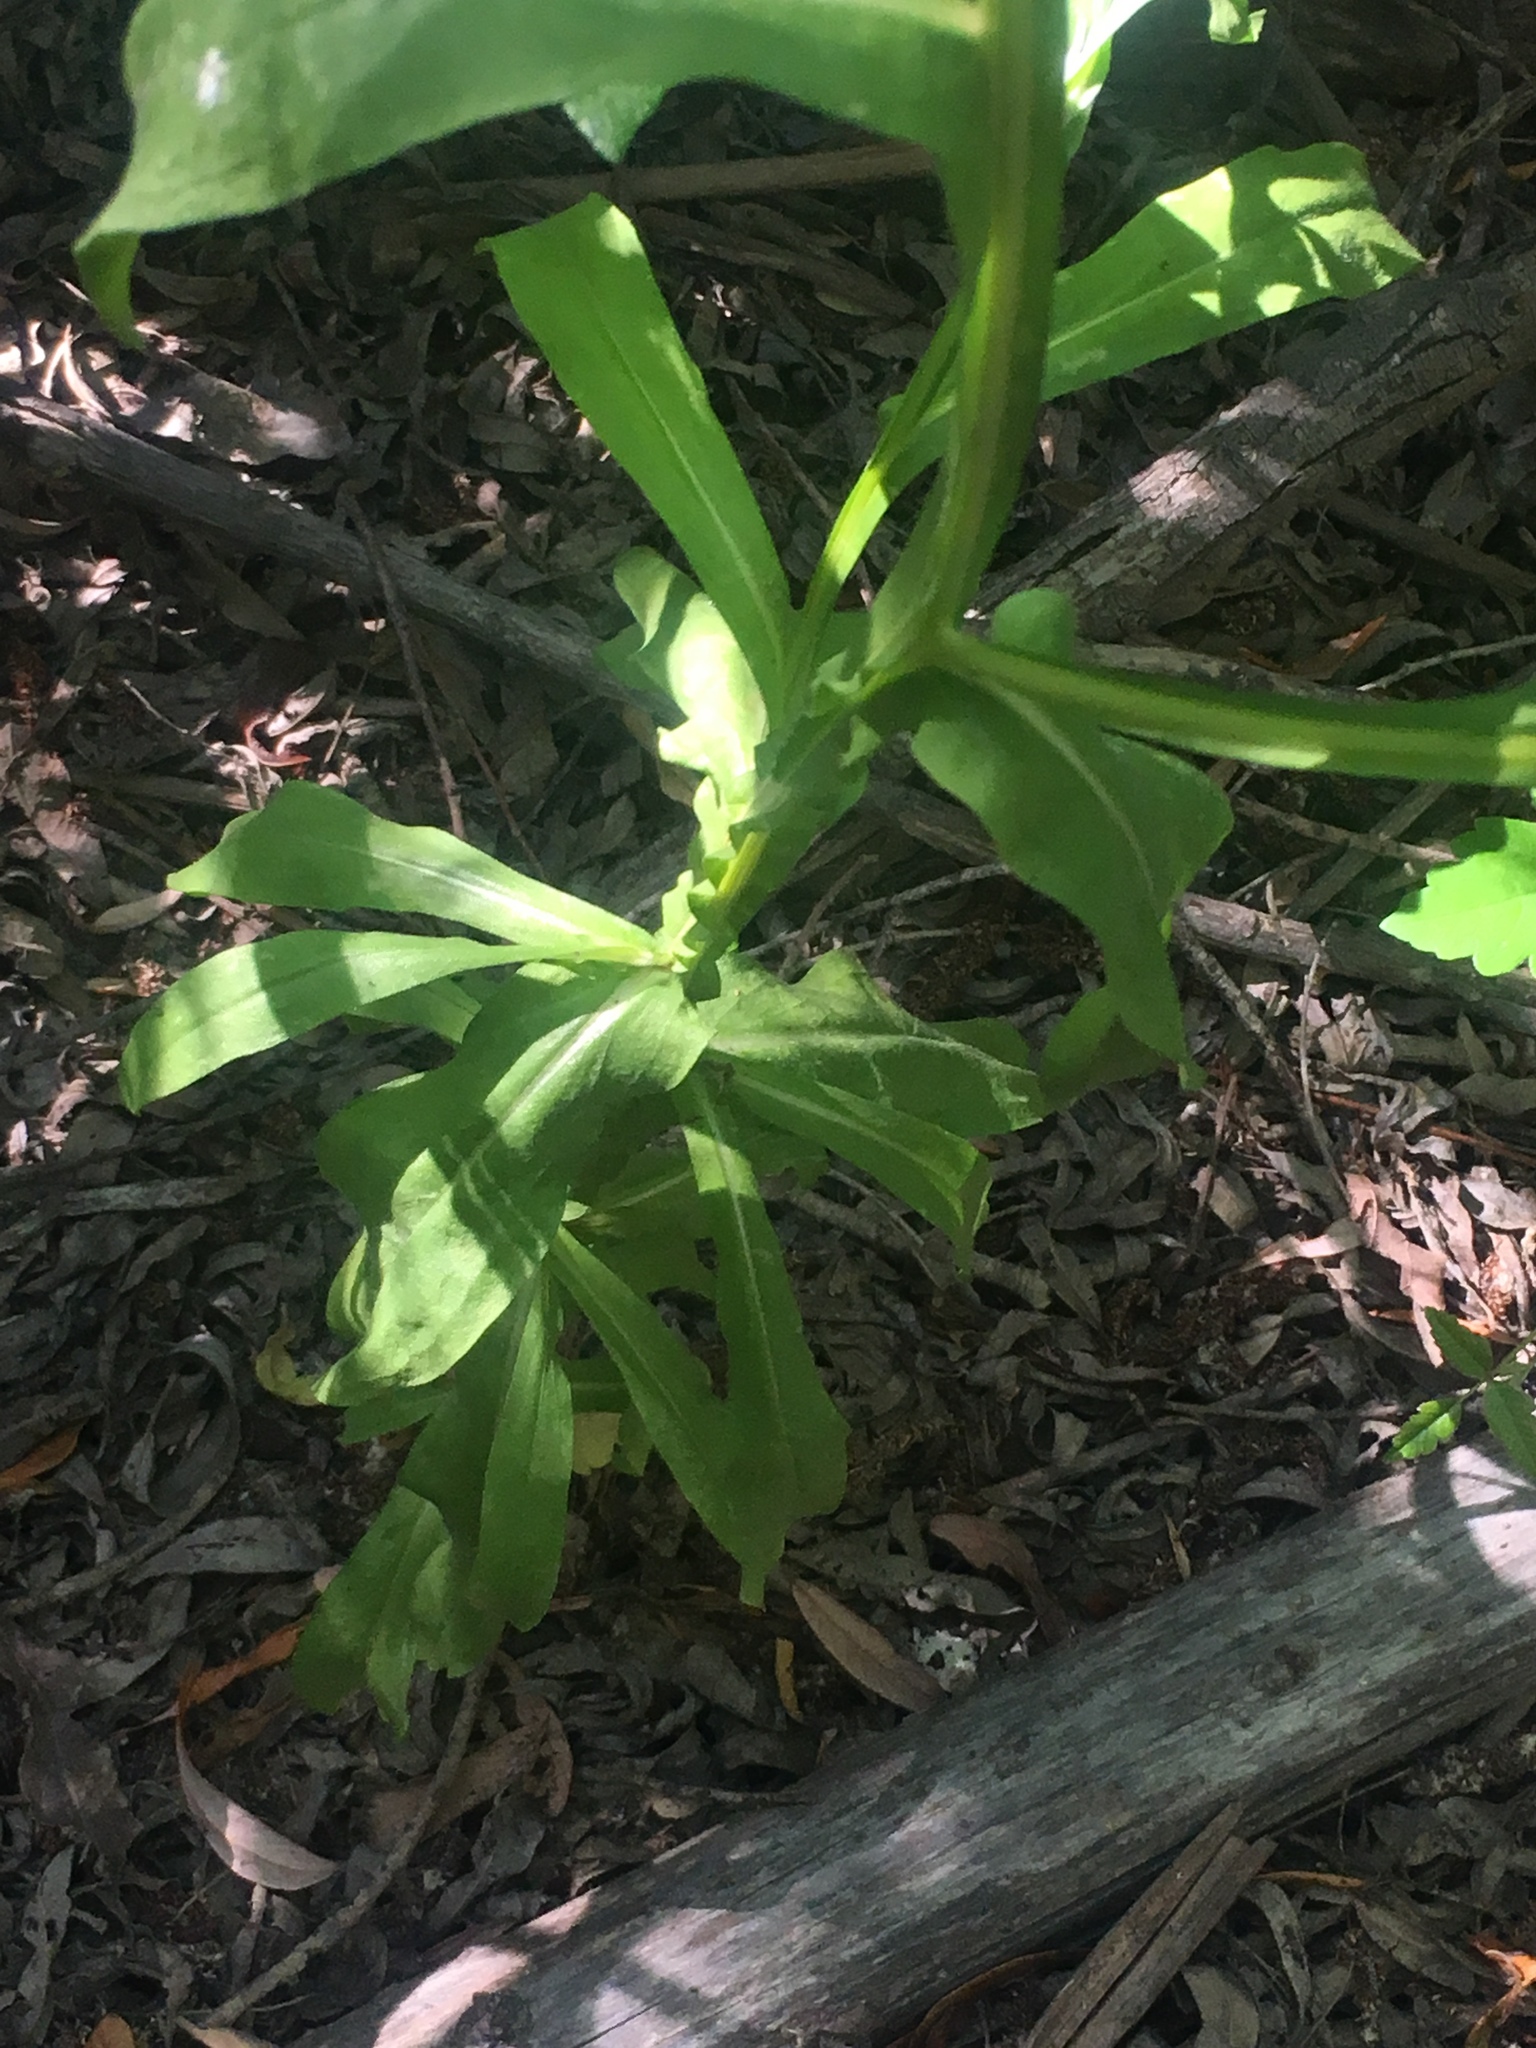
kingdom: Plantae
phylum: Tracheophyta
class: Magnoliopsida
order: Asterales
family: Asteraceae
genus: Helenium
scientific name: Helenium puberulum
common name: Sneezewort
